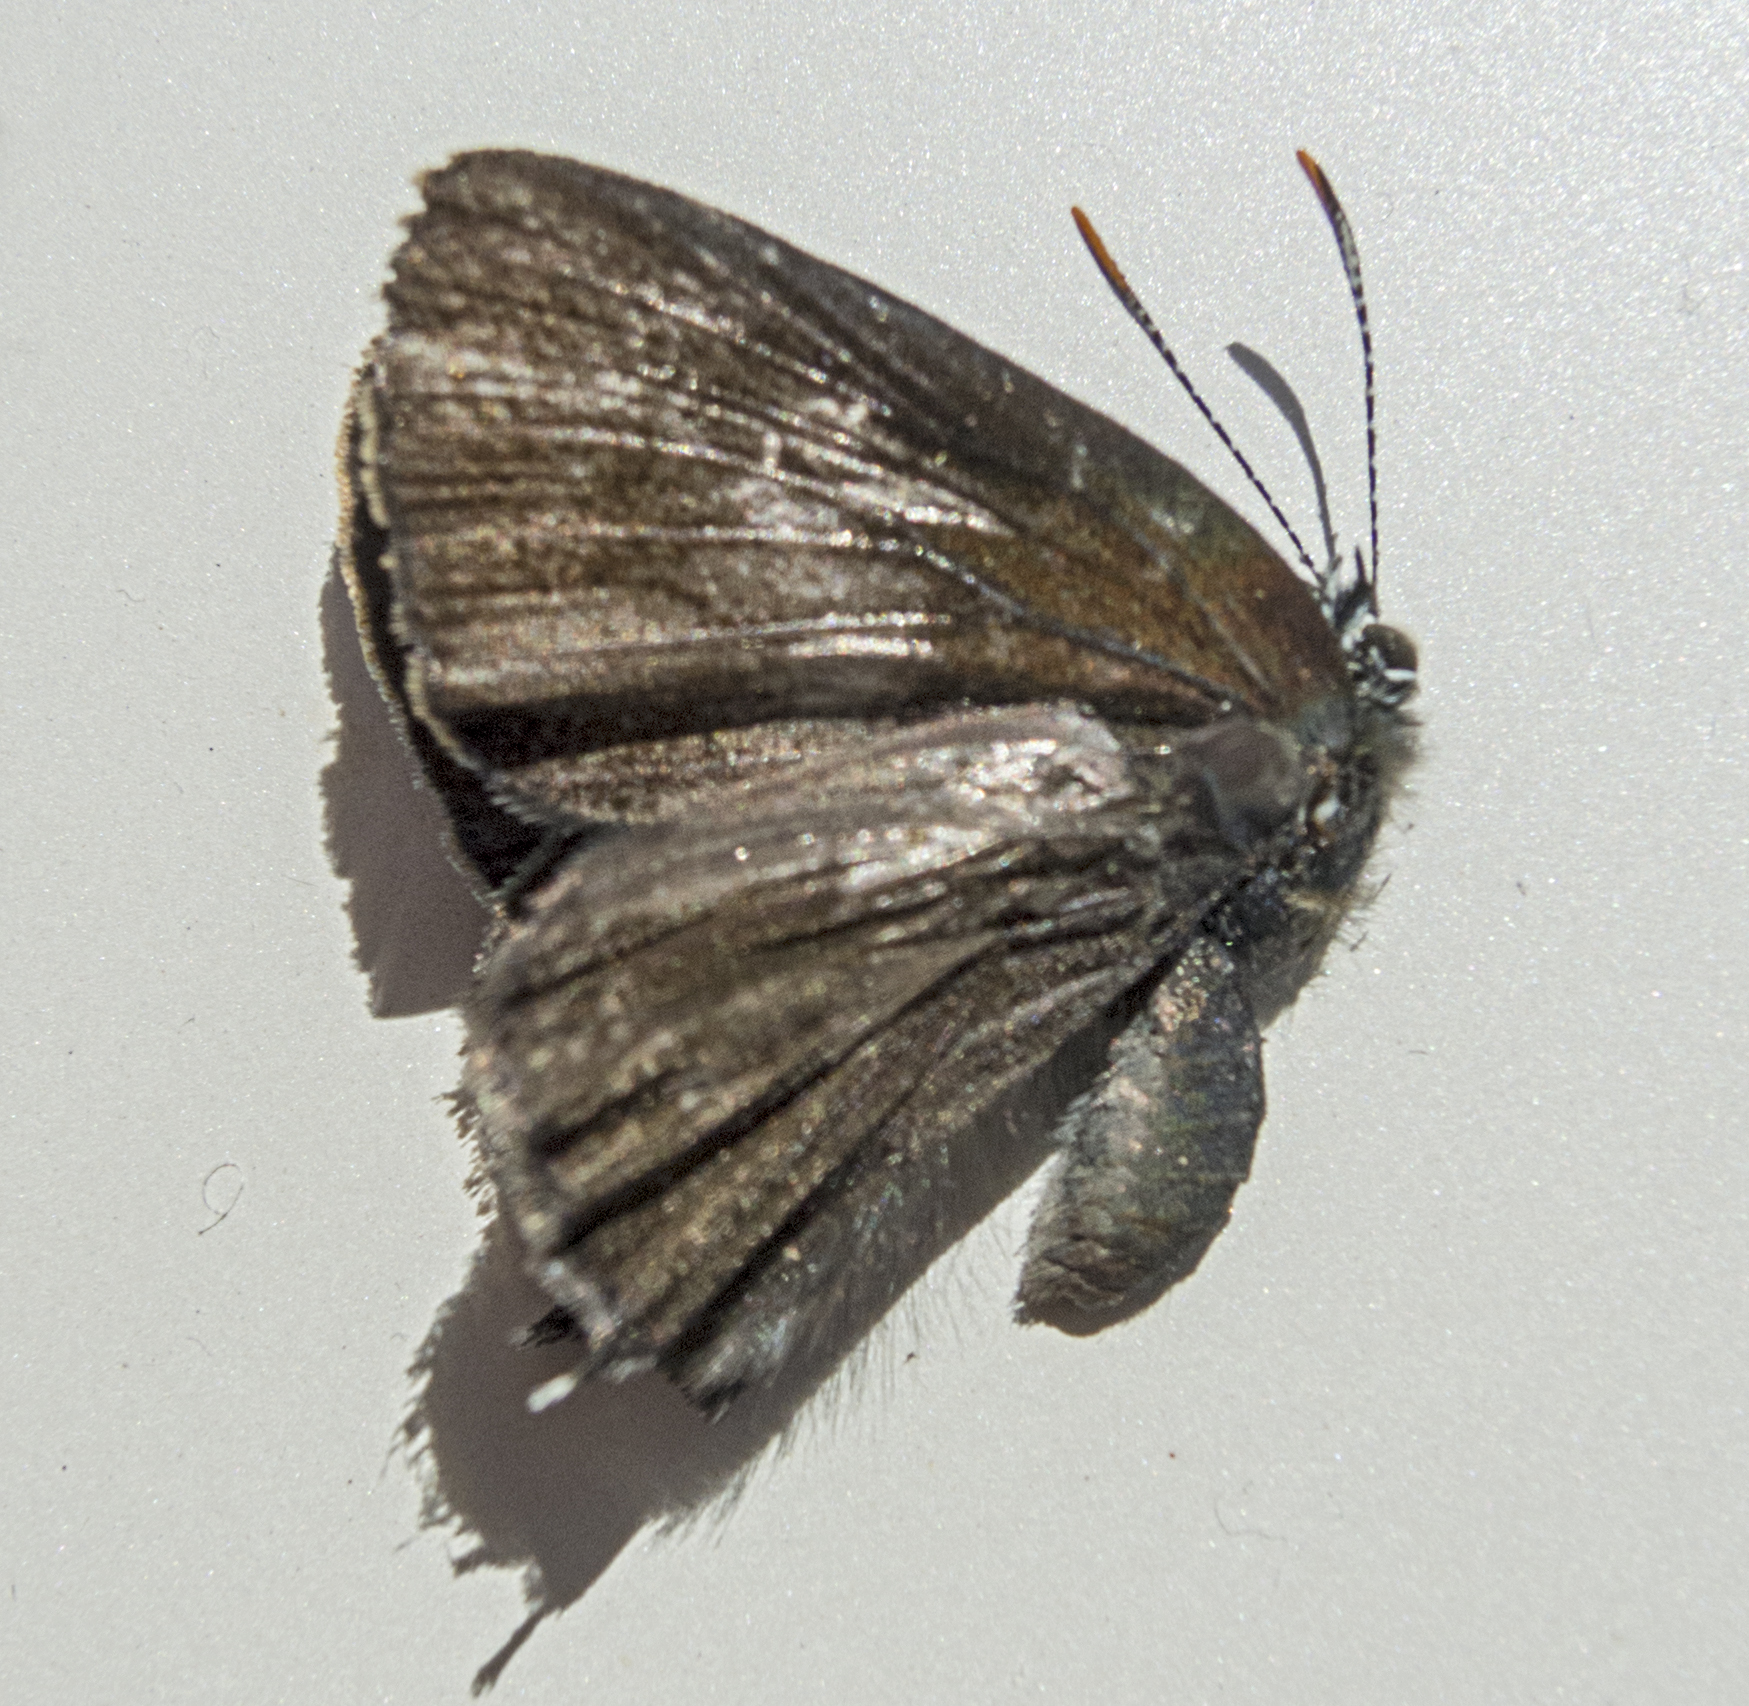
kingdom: Animalia
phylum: Arthropoda
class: Insecta
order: Lepidoptera
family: Lycaenidae
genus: Nordmannia
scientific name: Nordmannia ilicis
